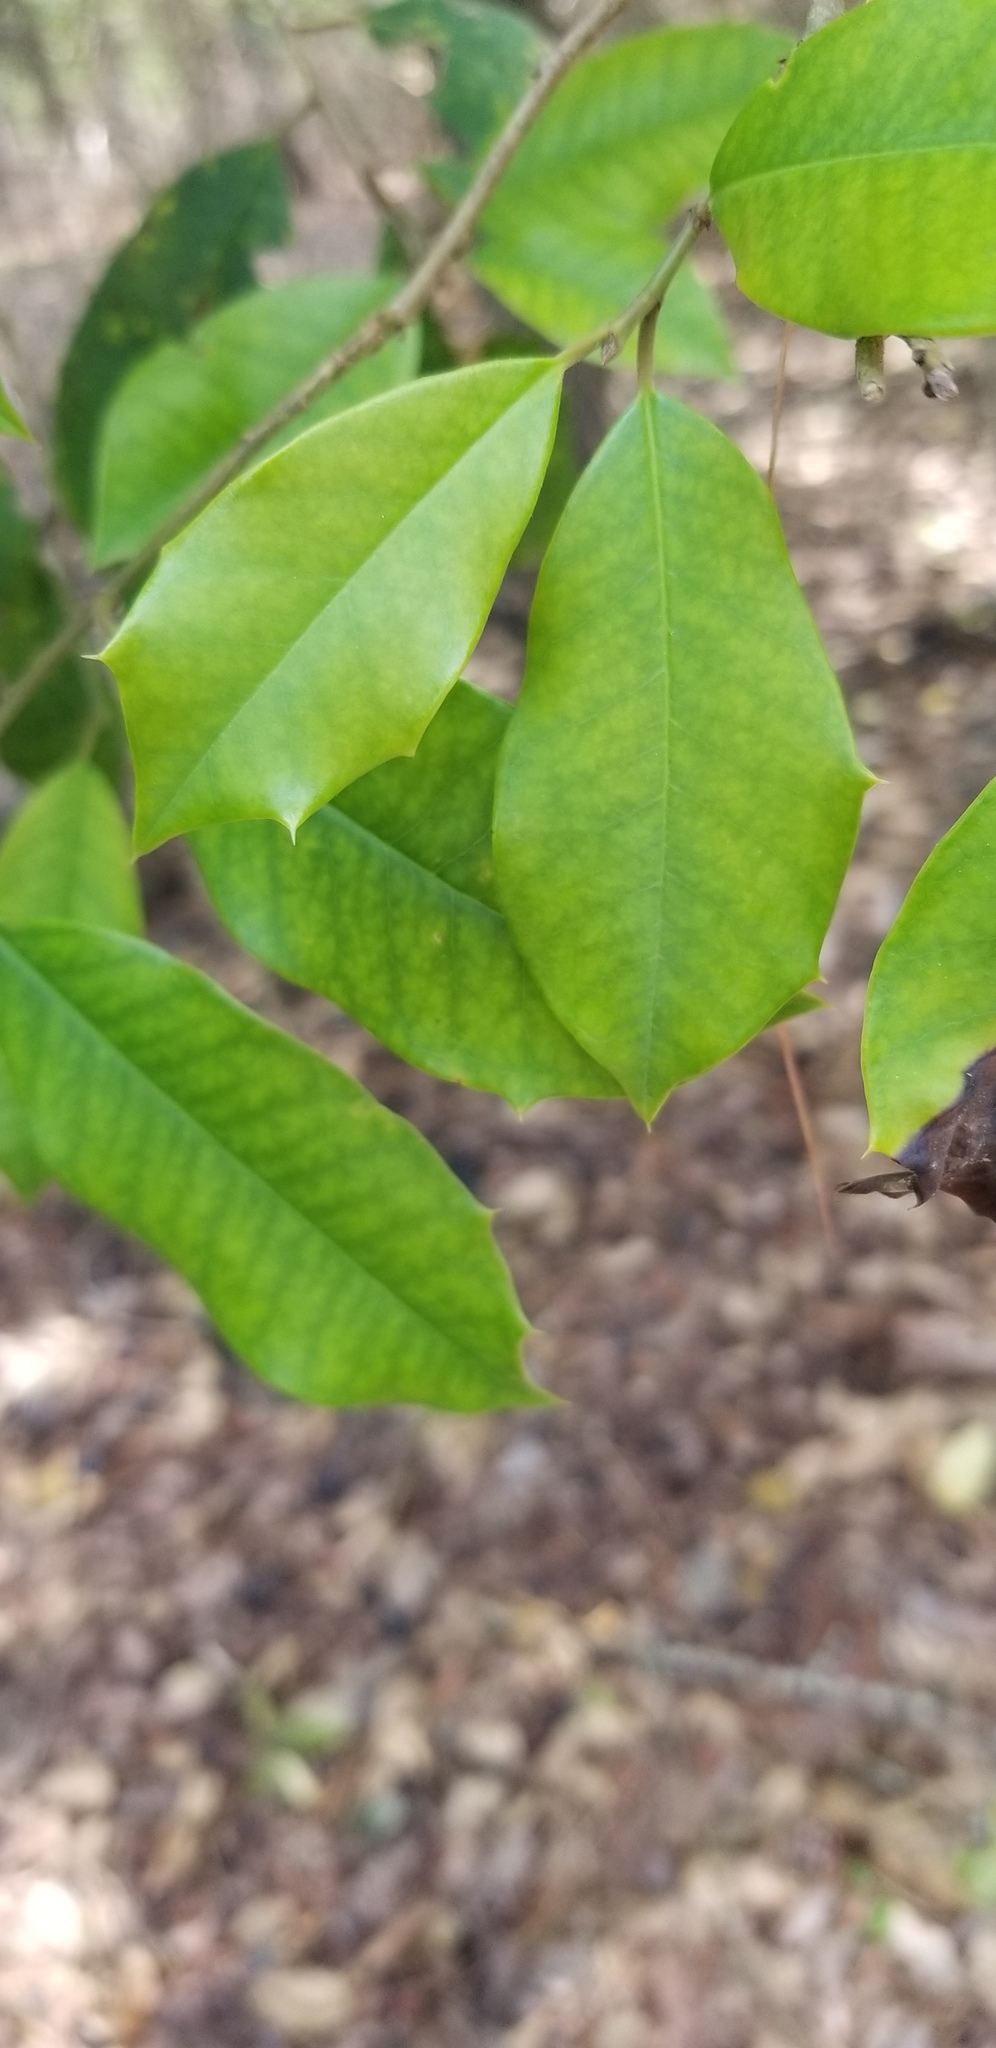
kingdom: Plantae
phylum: Tracheophyta
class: Magnoliopsida
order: Aquifoliales
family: Aquifoliaceae
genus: Ilex
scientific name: Ilex opaca
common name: American holly
